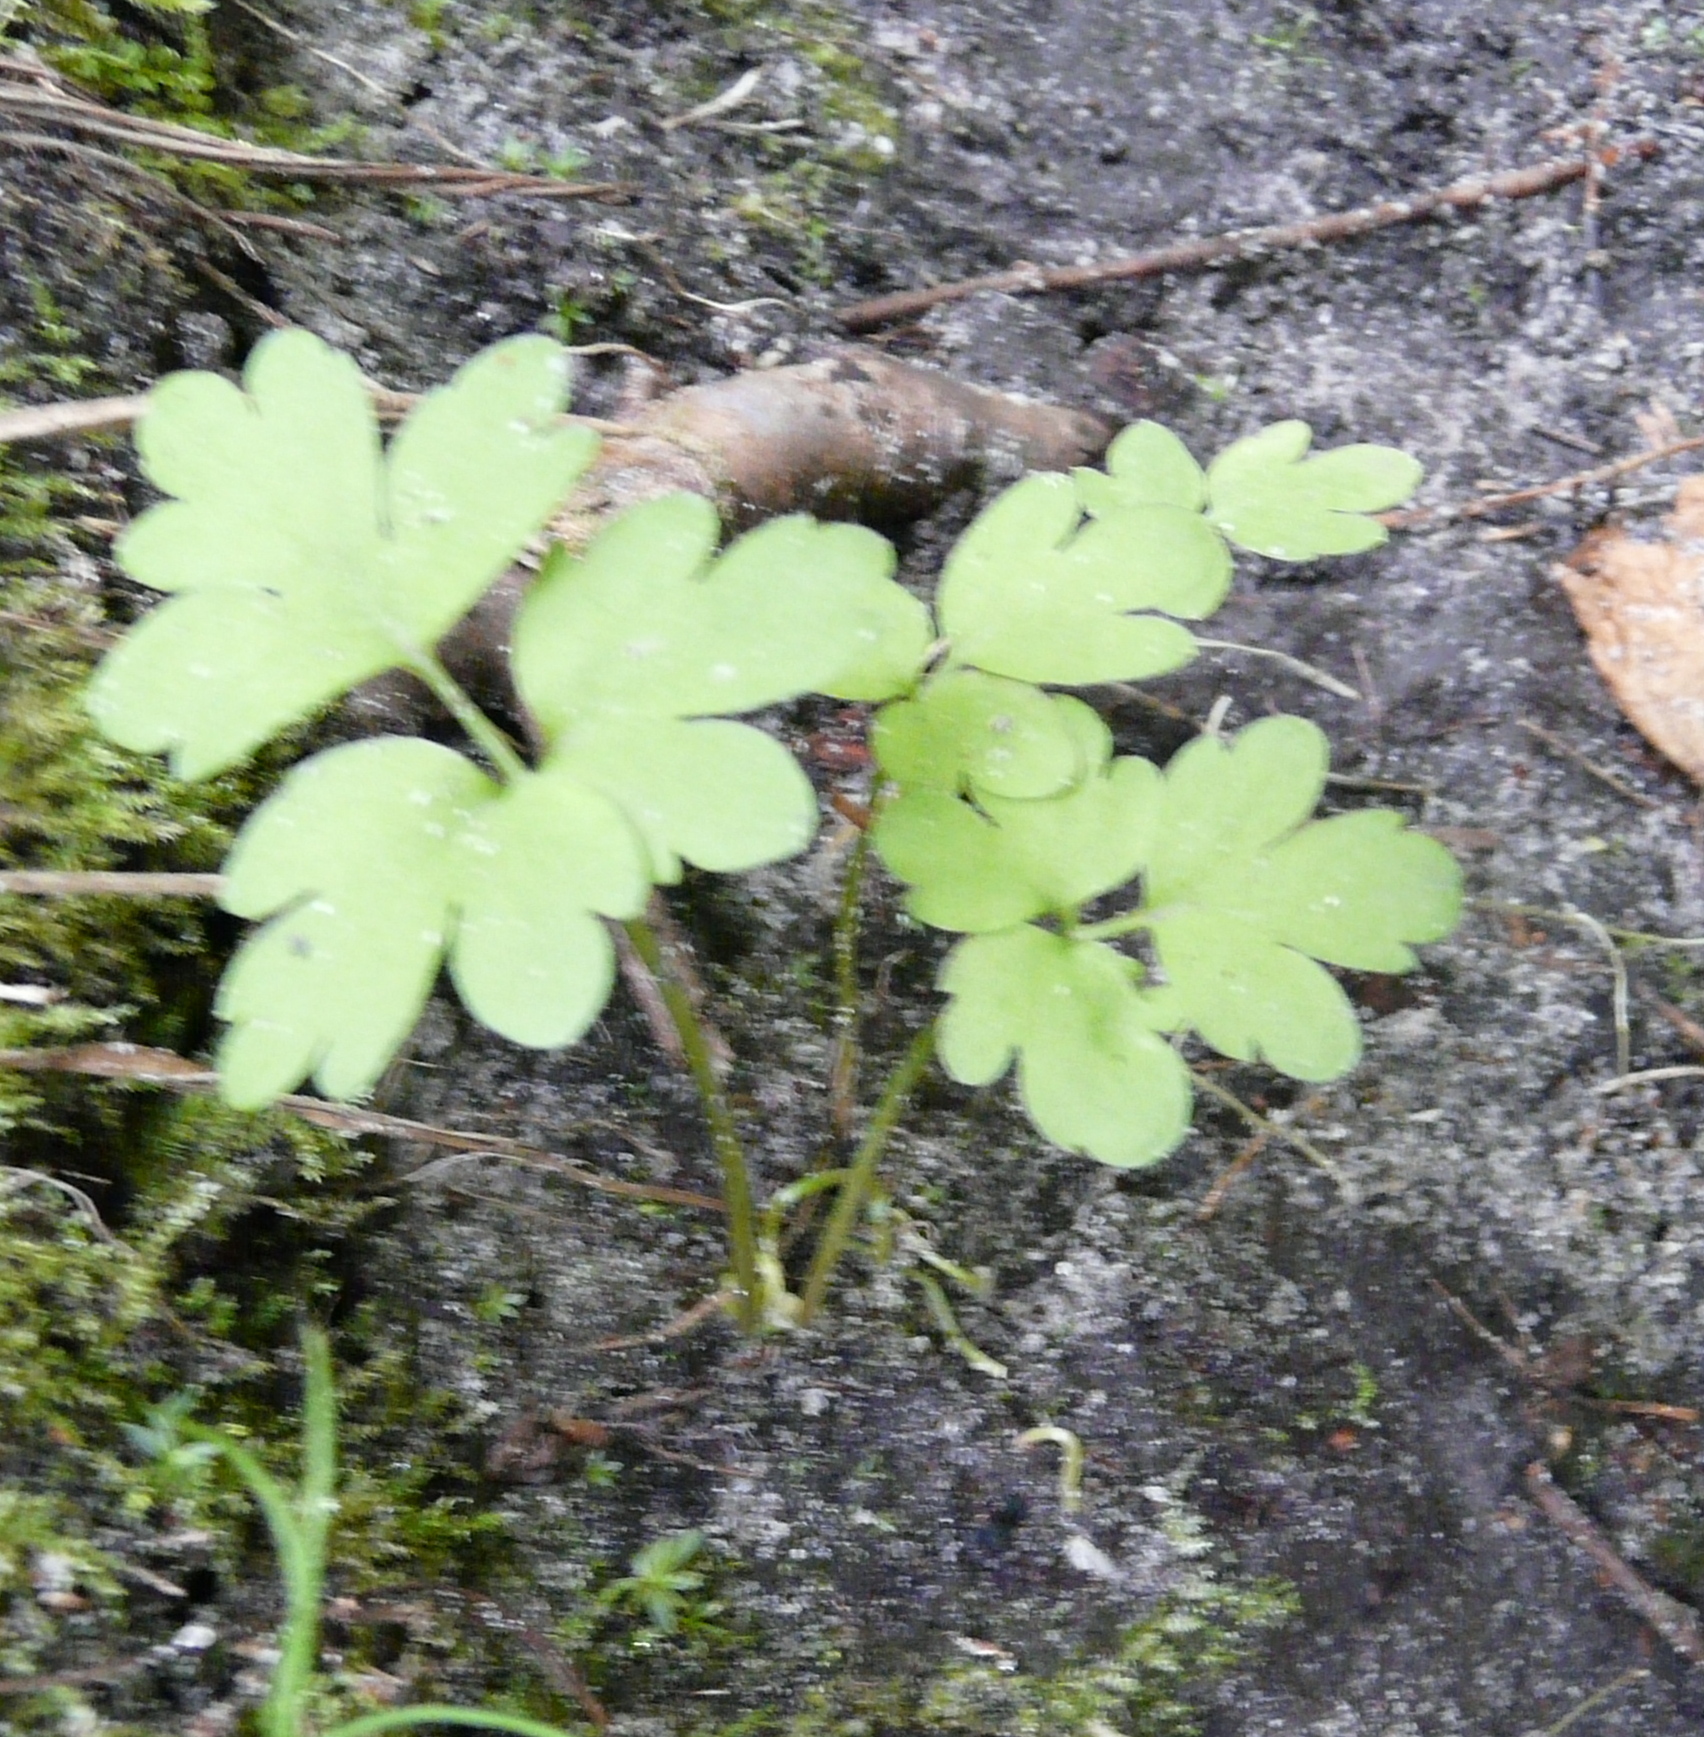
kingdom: Plantae
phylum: Tracheophyta
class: Magnoliopsida
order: Dipsacales
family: Viburnaceae
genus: Adoxa
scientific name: Adoxa moschatellina
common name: Moschatel
